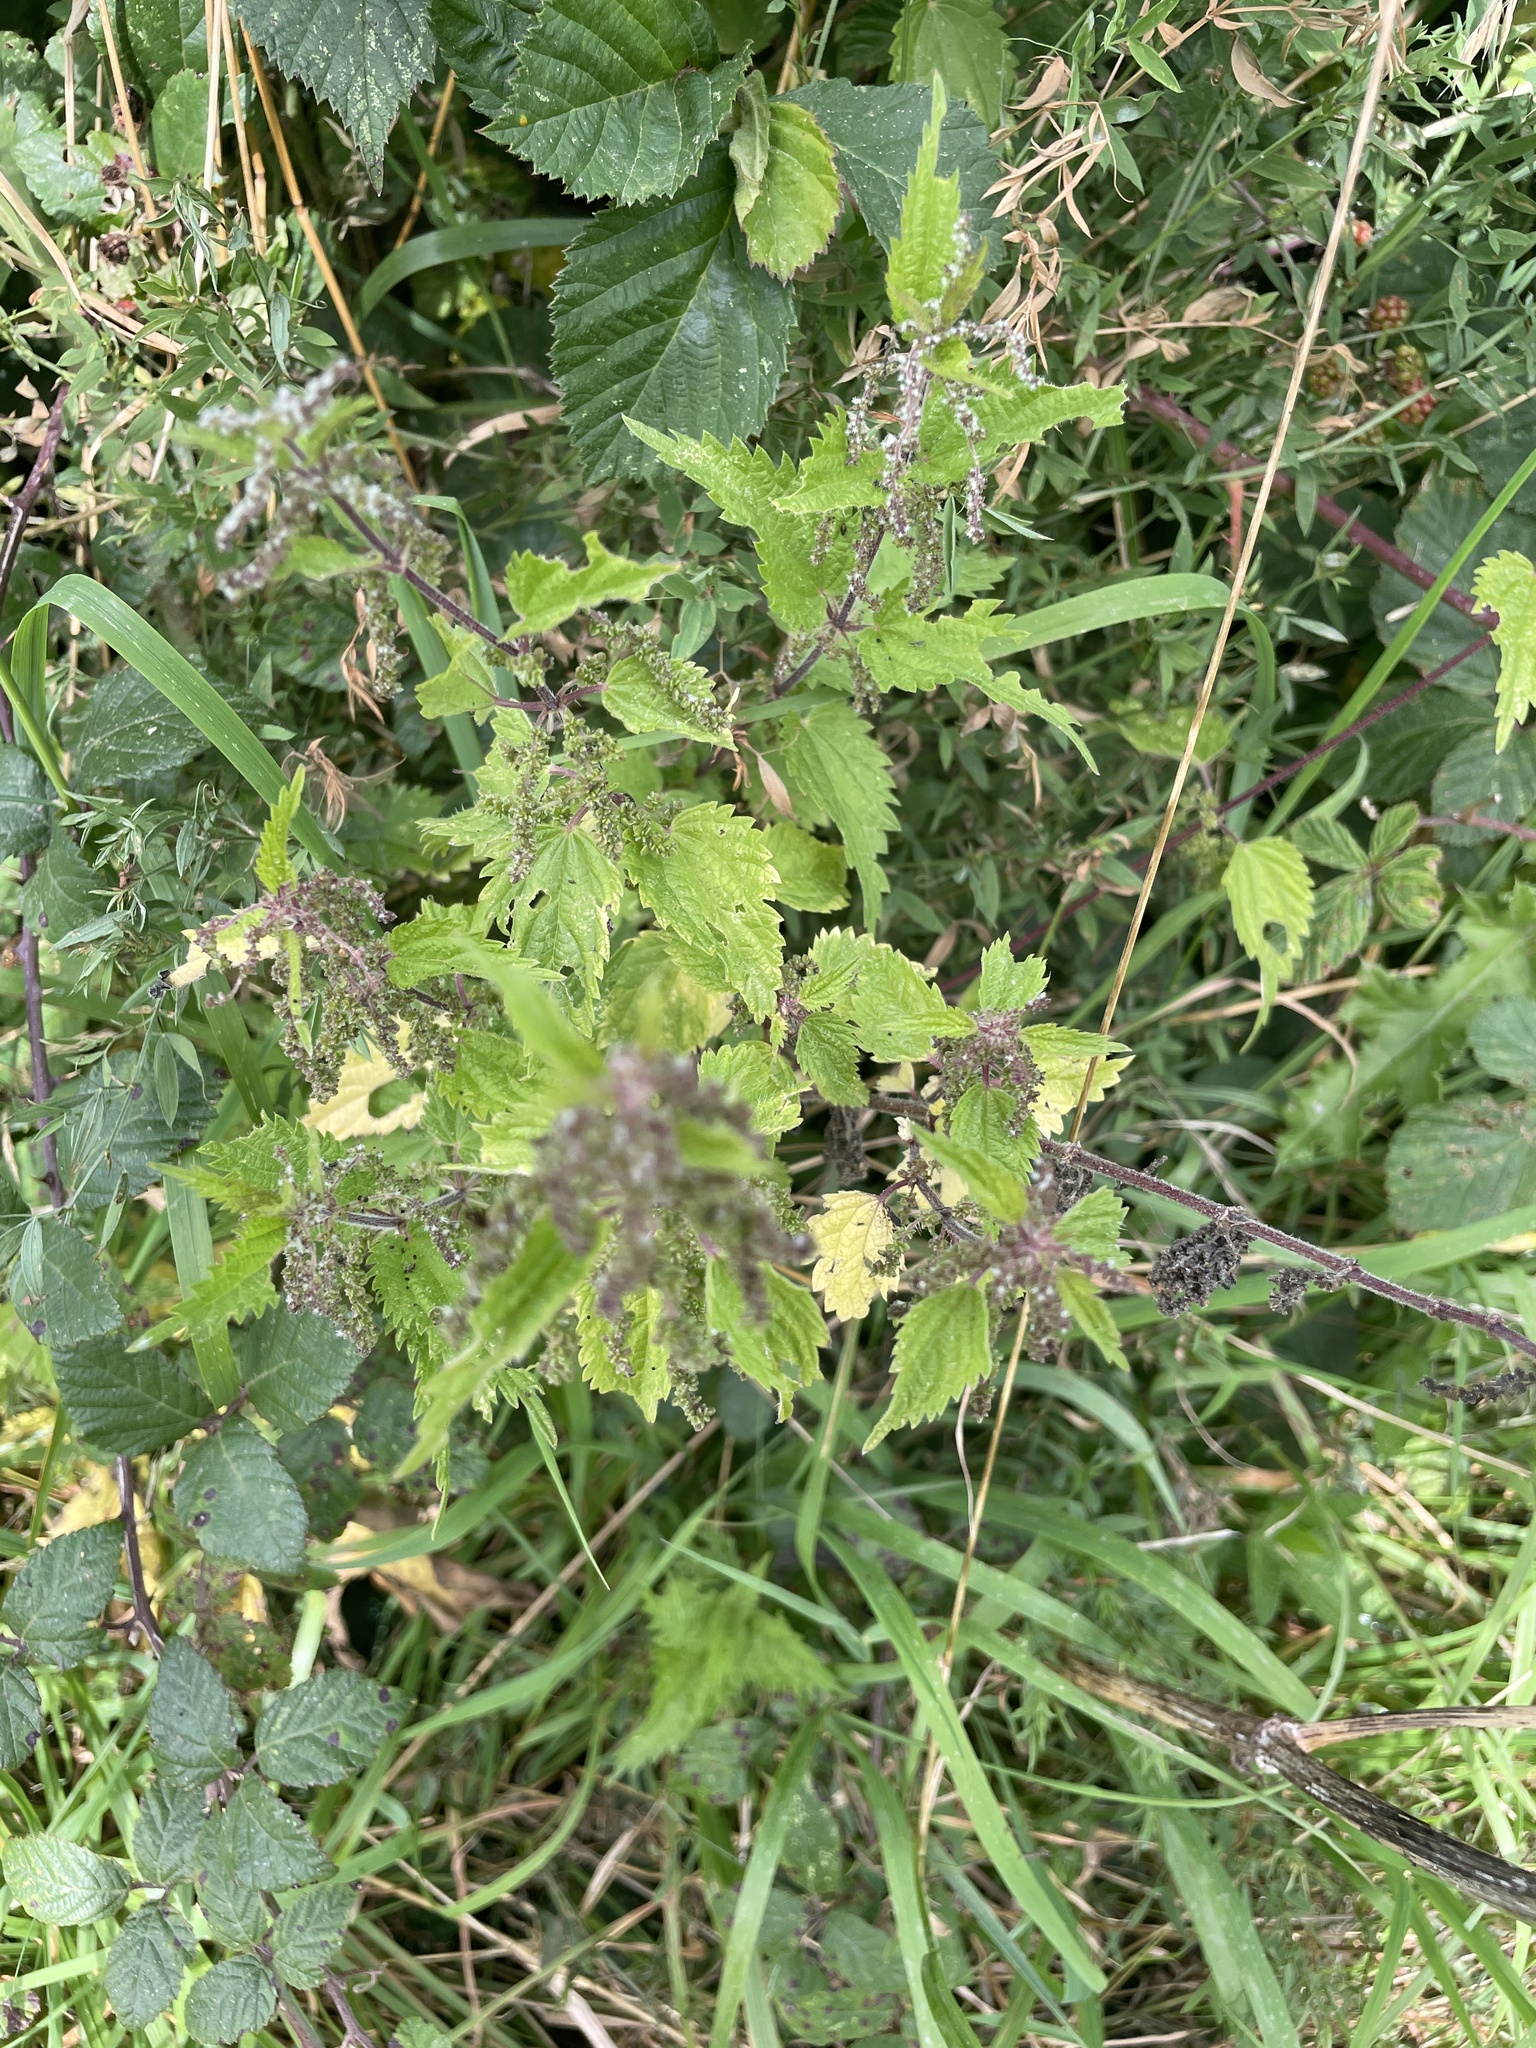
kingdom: Plantae
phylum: Tracheophyta
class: Magnoliopsida
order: Rosales
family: Urticaceae
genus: Urtica
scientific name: Urtica dioica
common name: Common nettle
